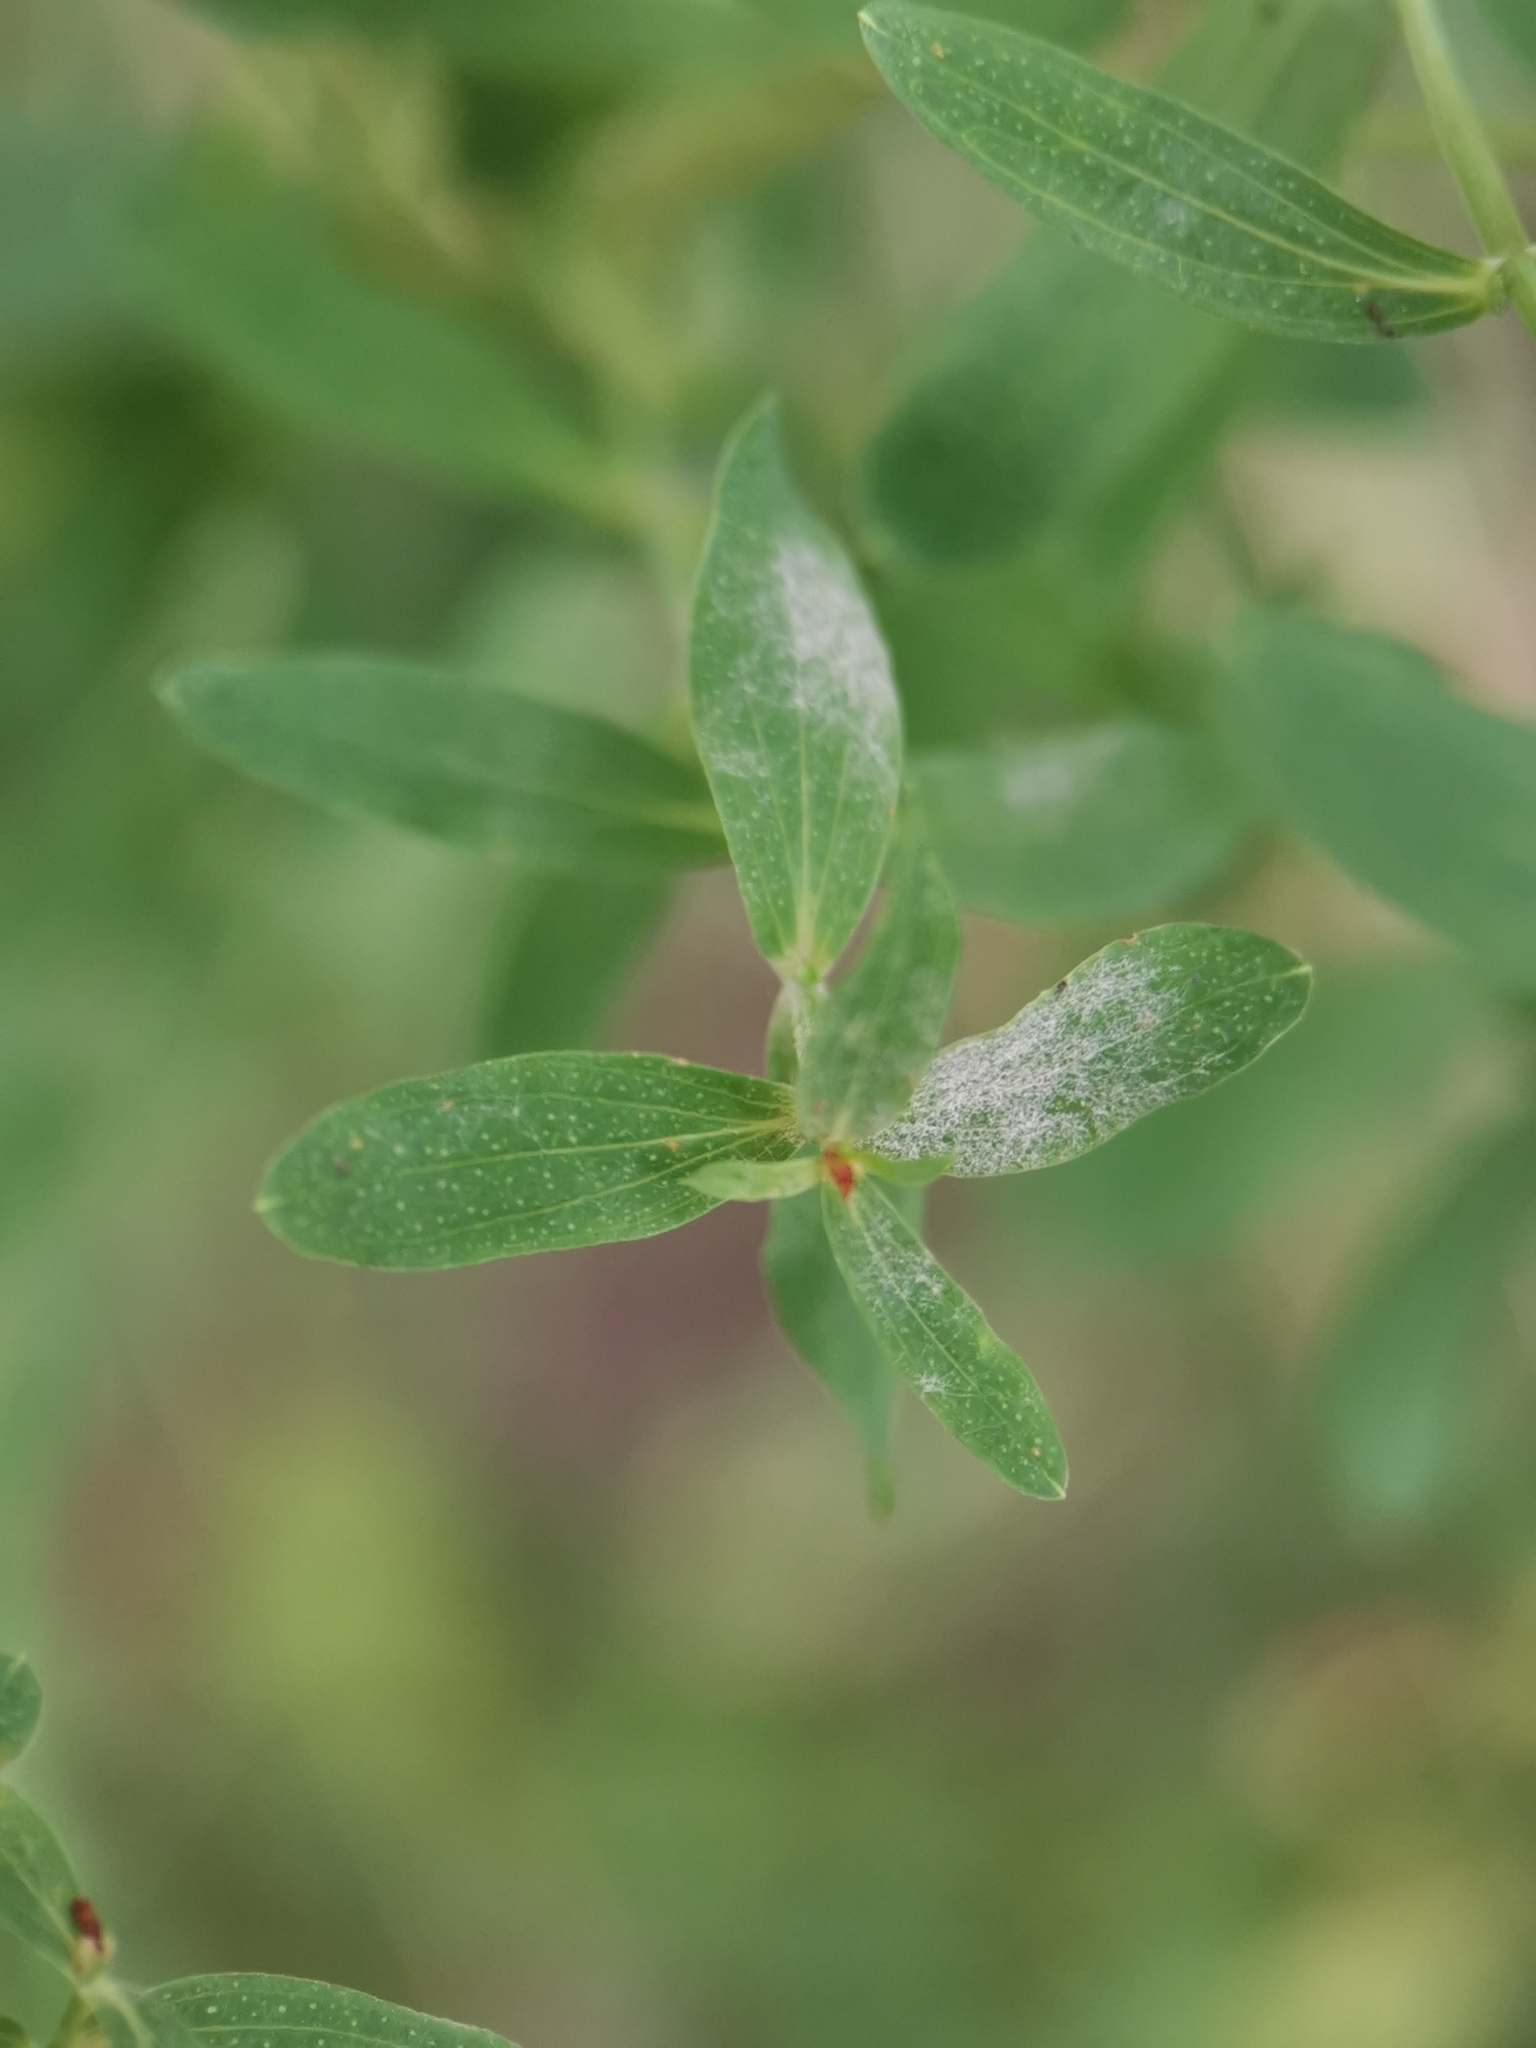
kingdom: Fungi
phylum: Ascomycota
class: Leotiomycetes
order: Helotiales
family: Erysiphaceae
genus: Erysiphe
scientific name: Erysiphe hyperici
